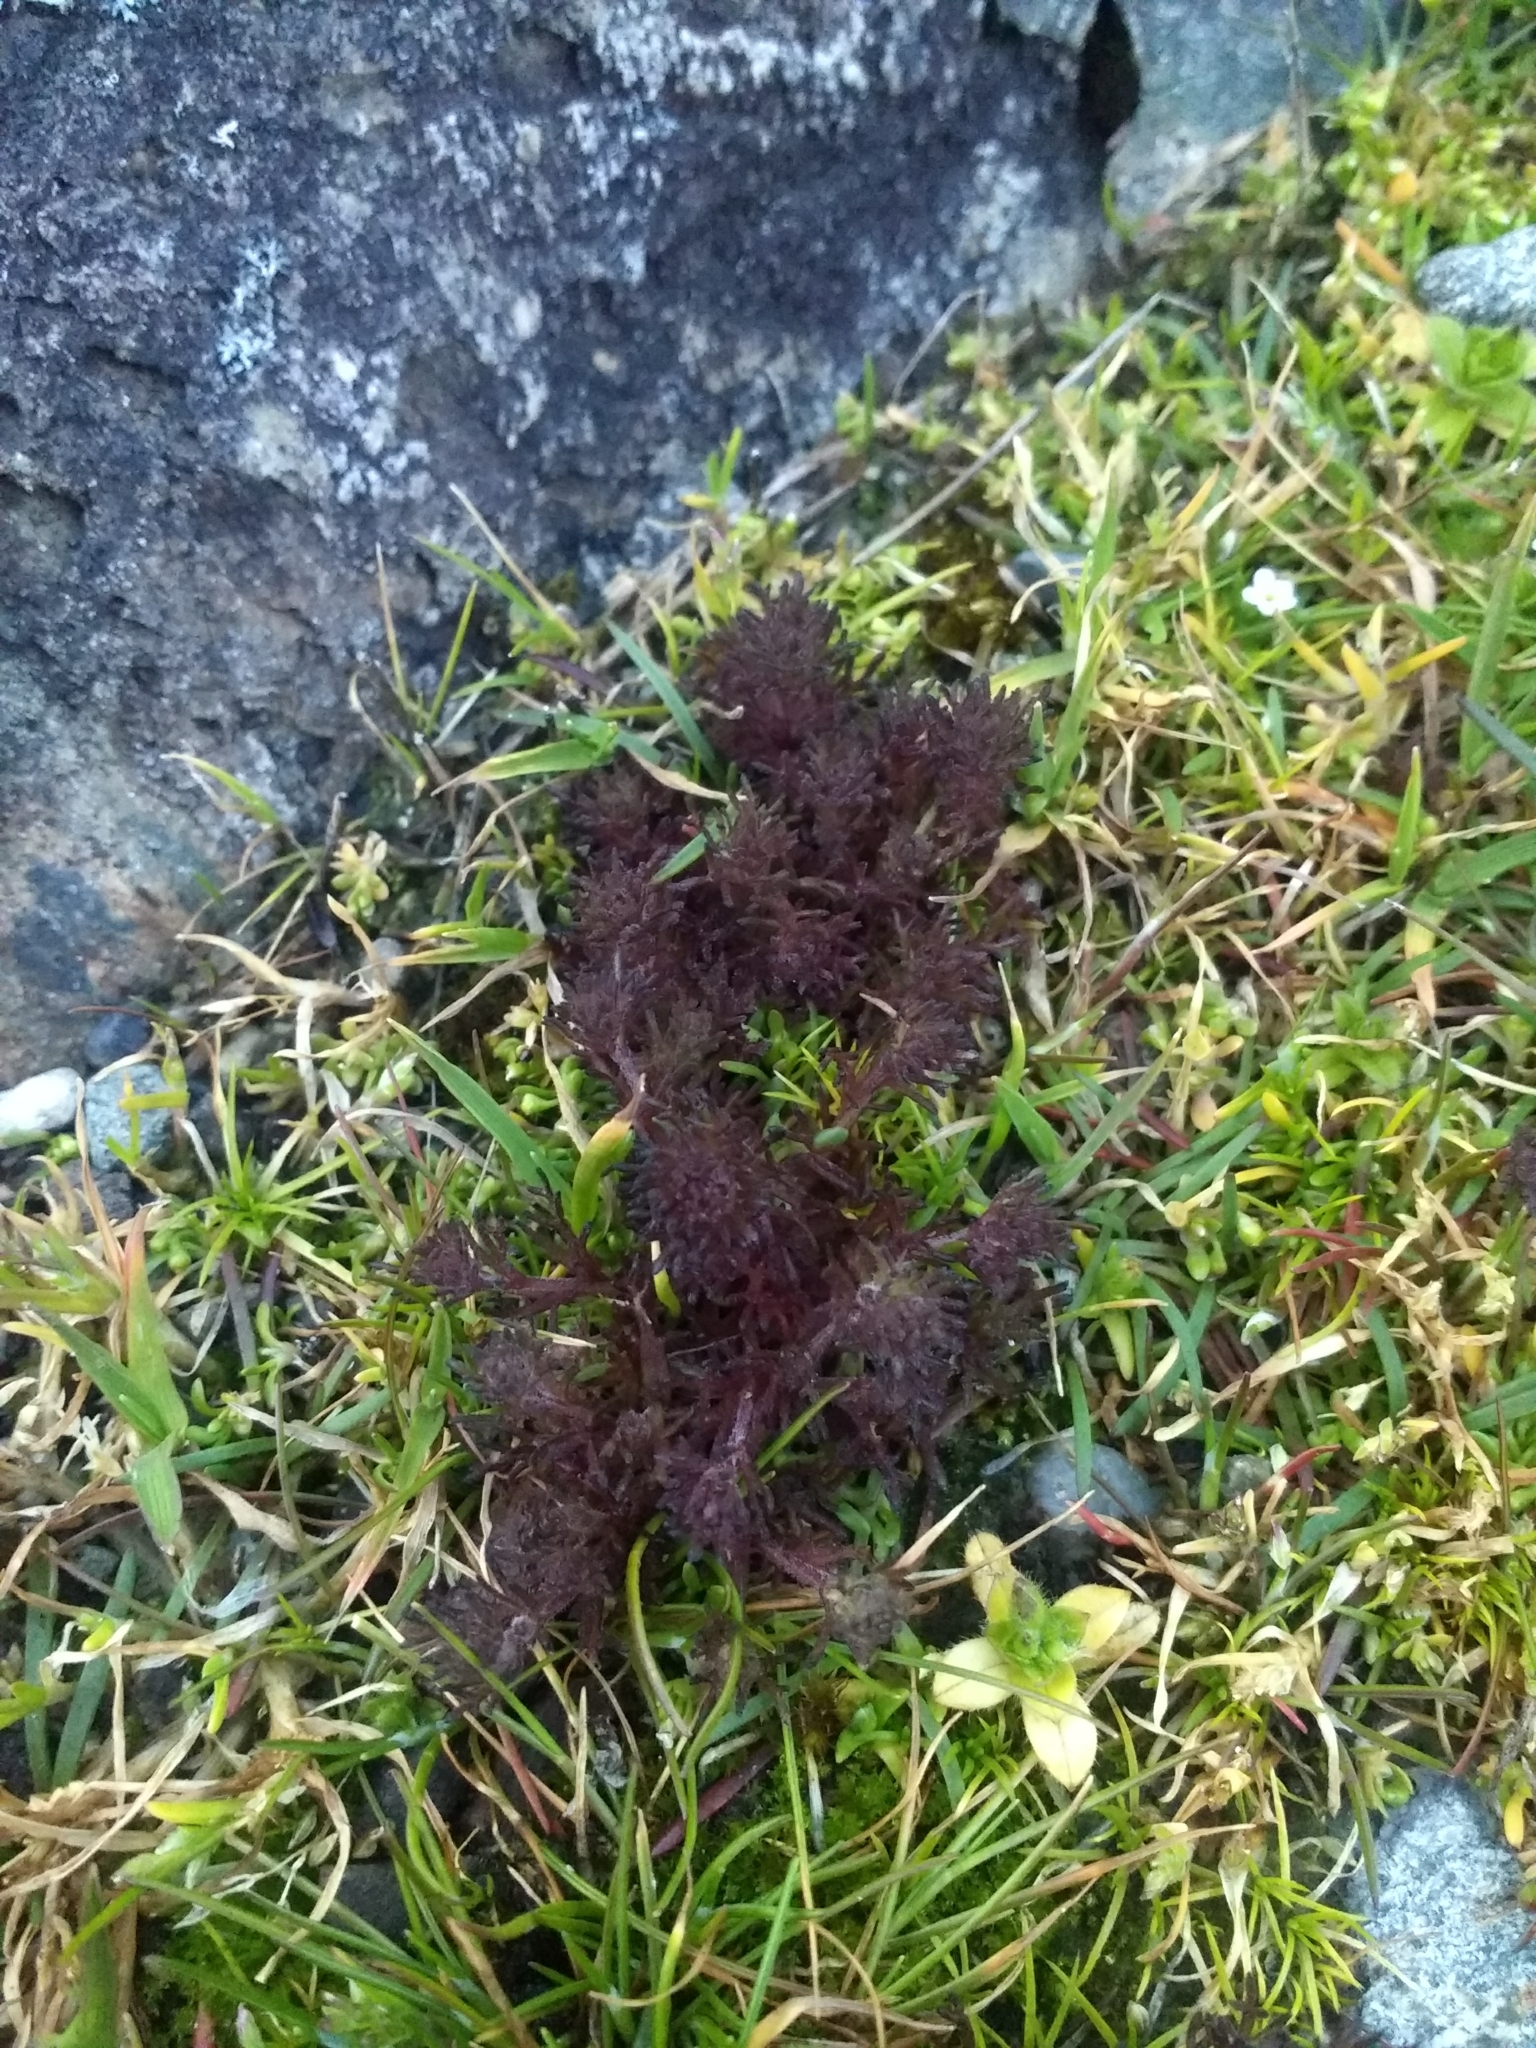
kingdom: Plantae
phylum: Tracheophyta
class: Magnoliopsida
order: Lamiales
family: Orobanchaceae
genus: Triphysaria
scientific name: Triphysaria pusilla
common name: Dwarf false owl-clover
